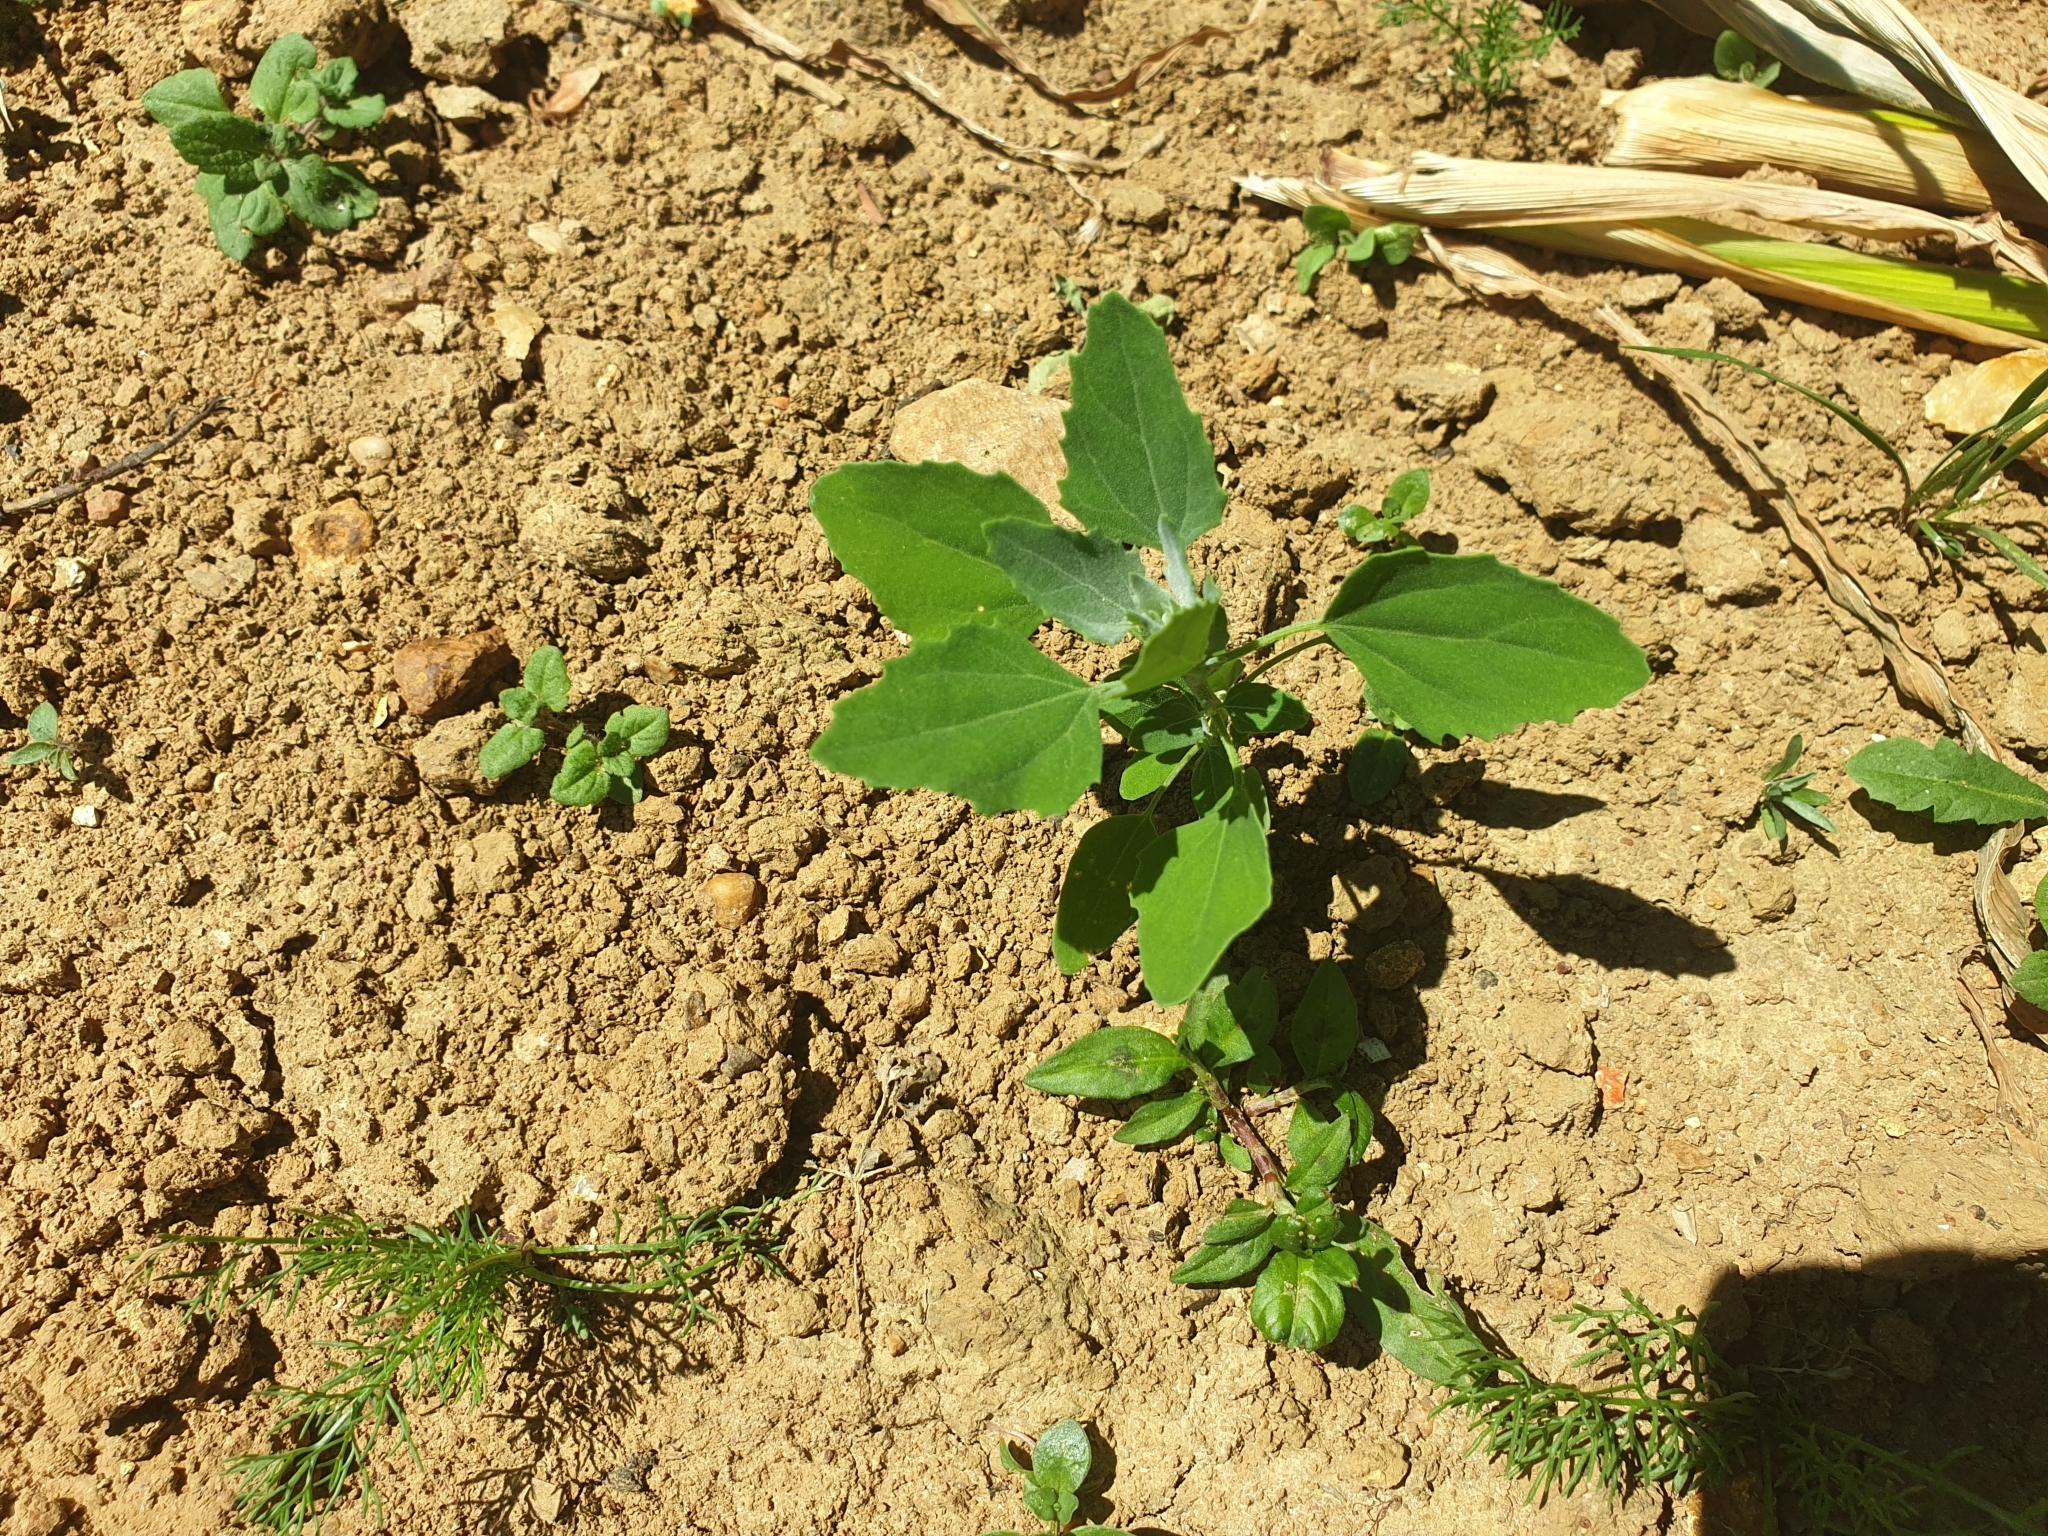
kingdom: Plantae
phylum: Tracheophyta
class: Magnoliopsida
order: Caryophyllales
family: Amaranthaceae
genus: Chenopodium
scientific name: Chenopodium album
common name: Fat-hen
